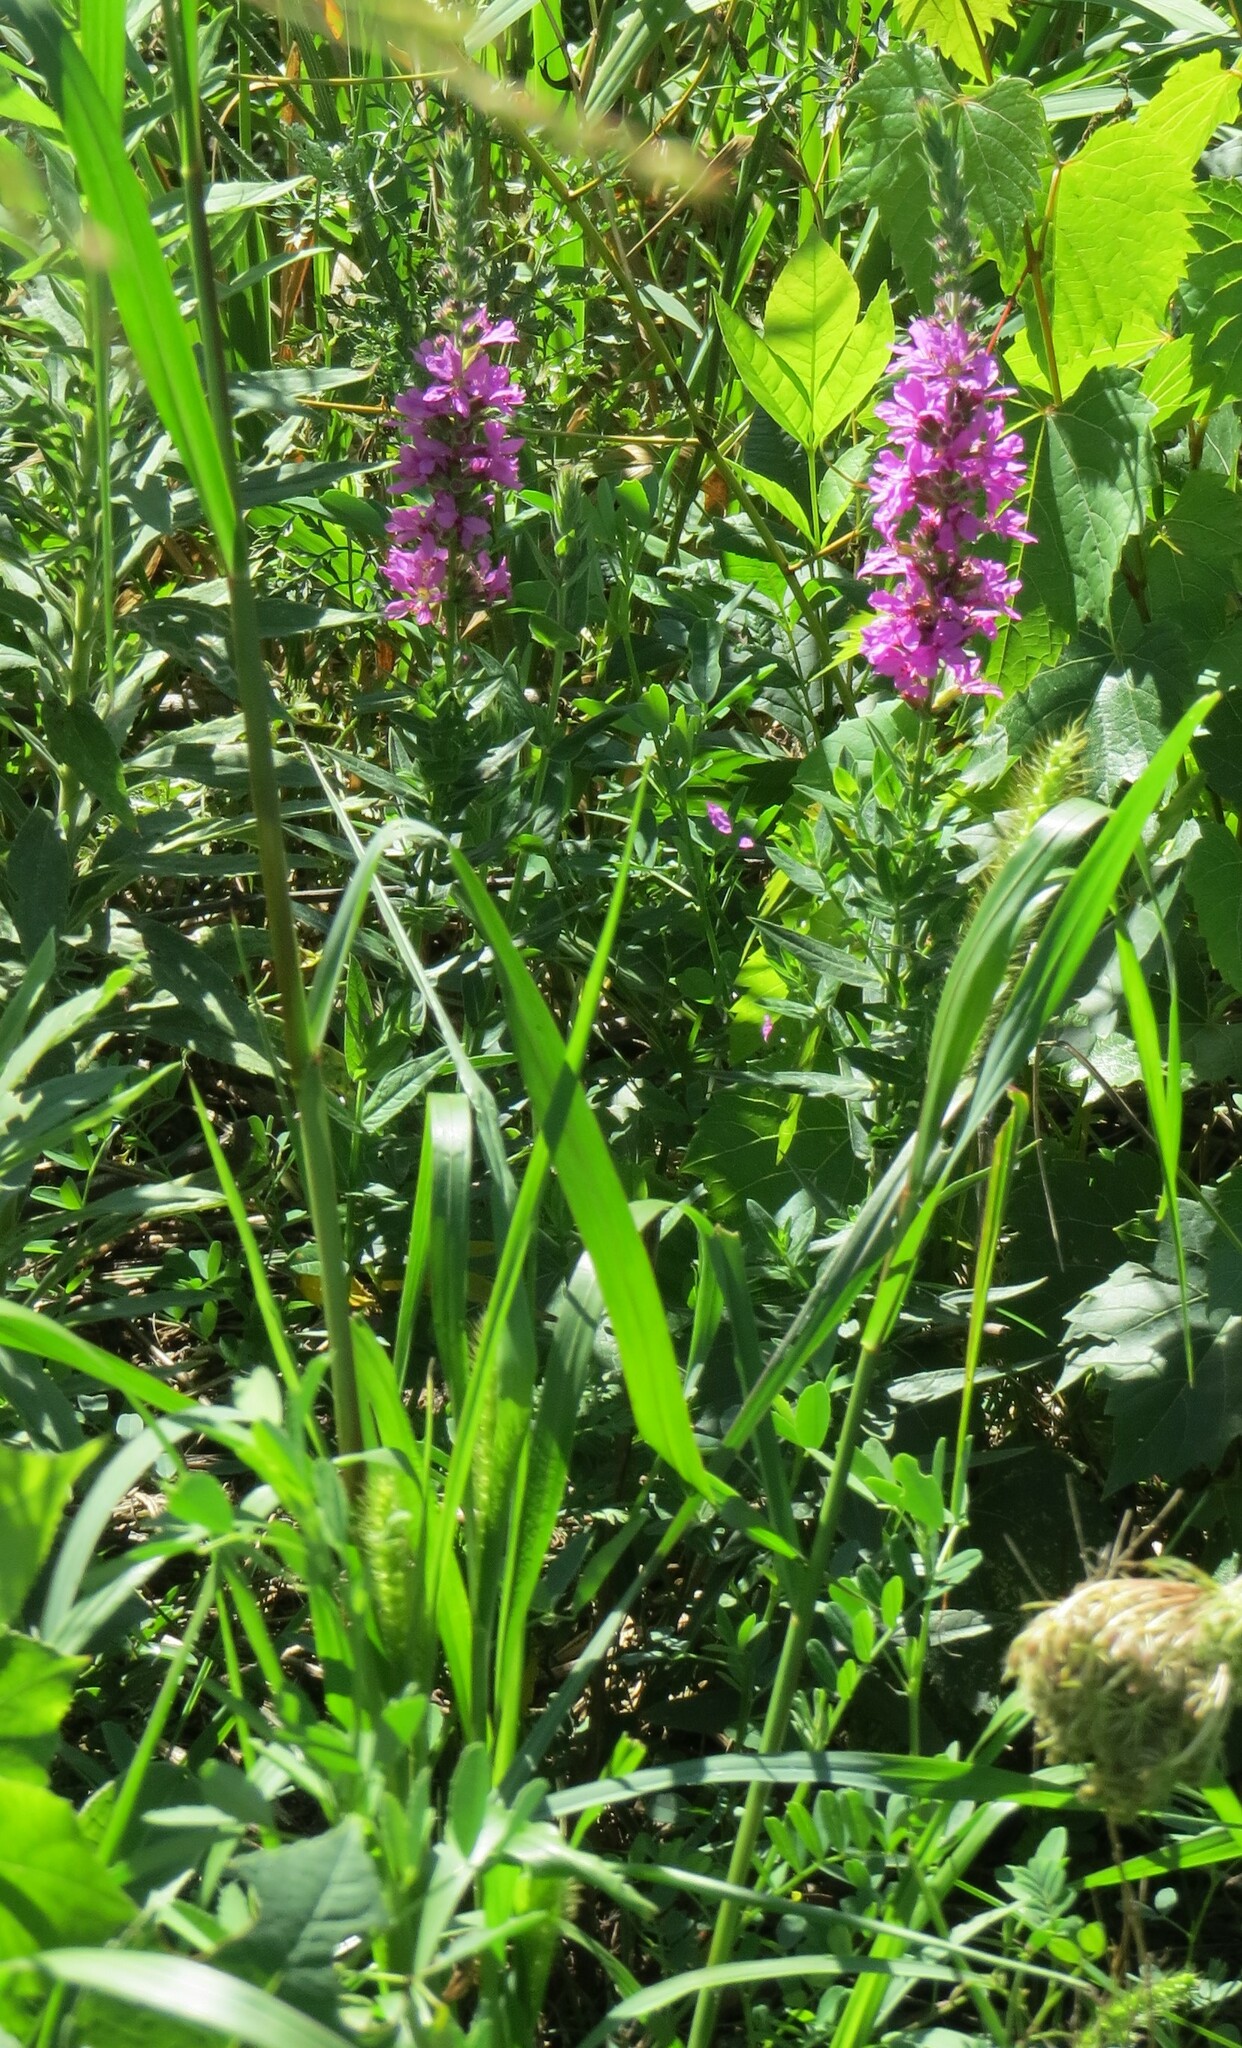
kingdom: Plantae
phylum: Tracheophyta
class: Magnoliopsida
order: Myrtales
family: Lythraceae
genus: Lythrum
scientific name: Lythrum salicaria
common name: Purple loosestrife
